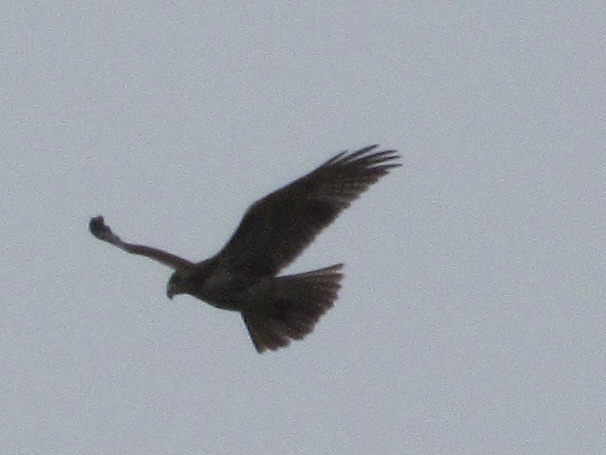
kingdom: Animalia
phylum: Chordata
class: Aves
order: Accipitriformes
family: Accipitridae
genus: Buteo
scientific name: Buteo jamaicensis
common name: Red-tailed hawk
